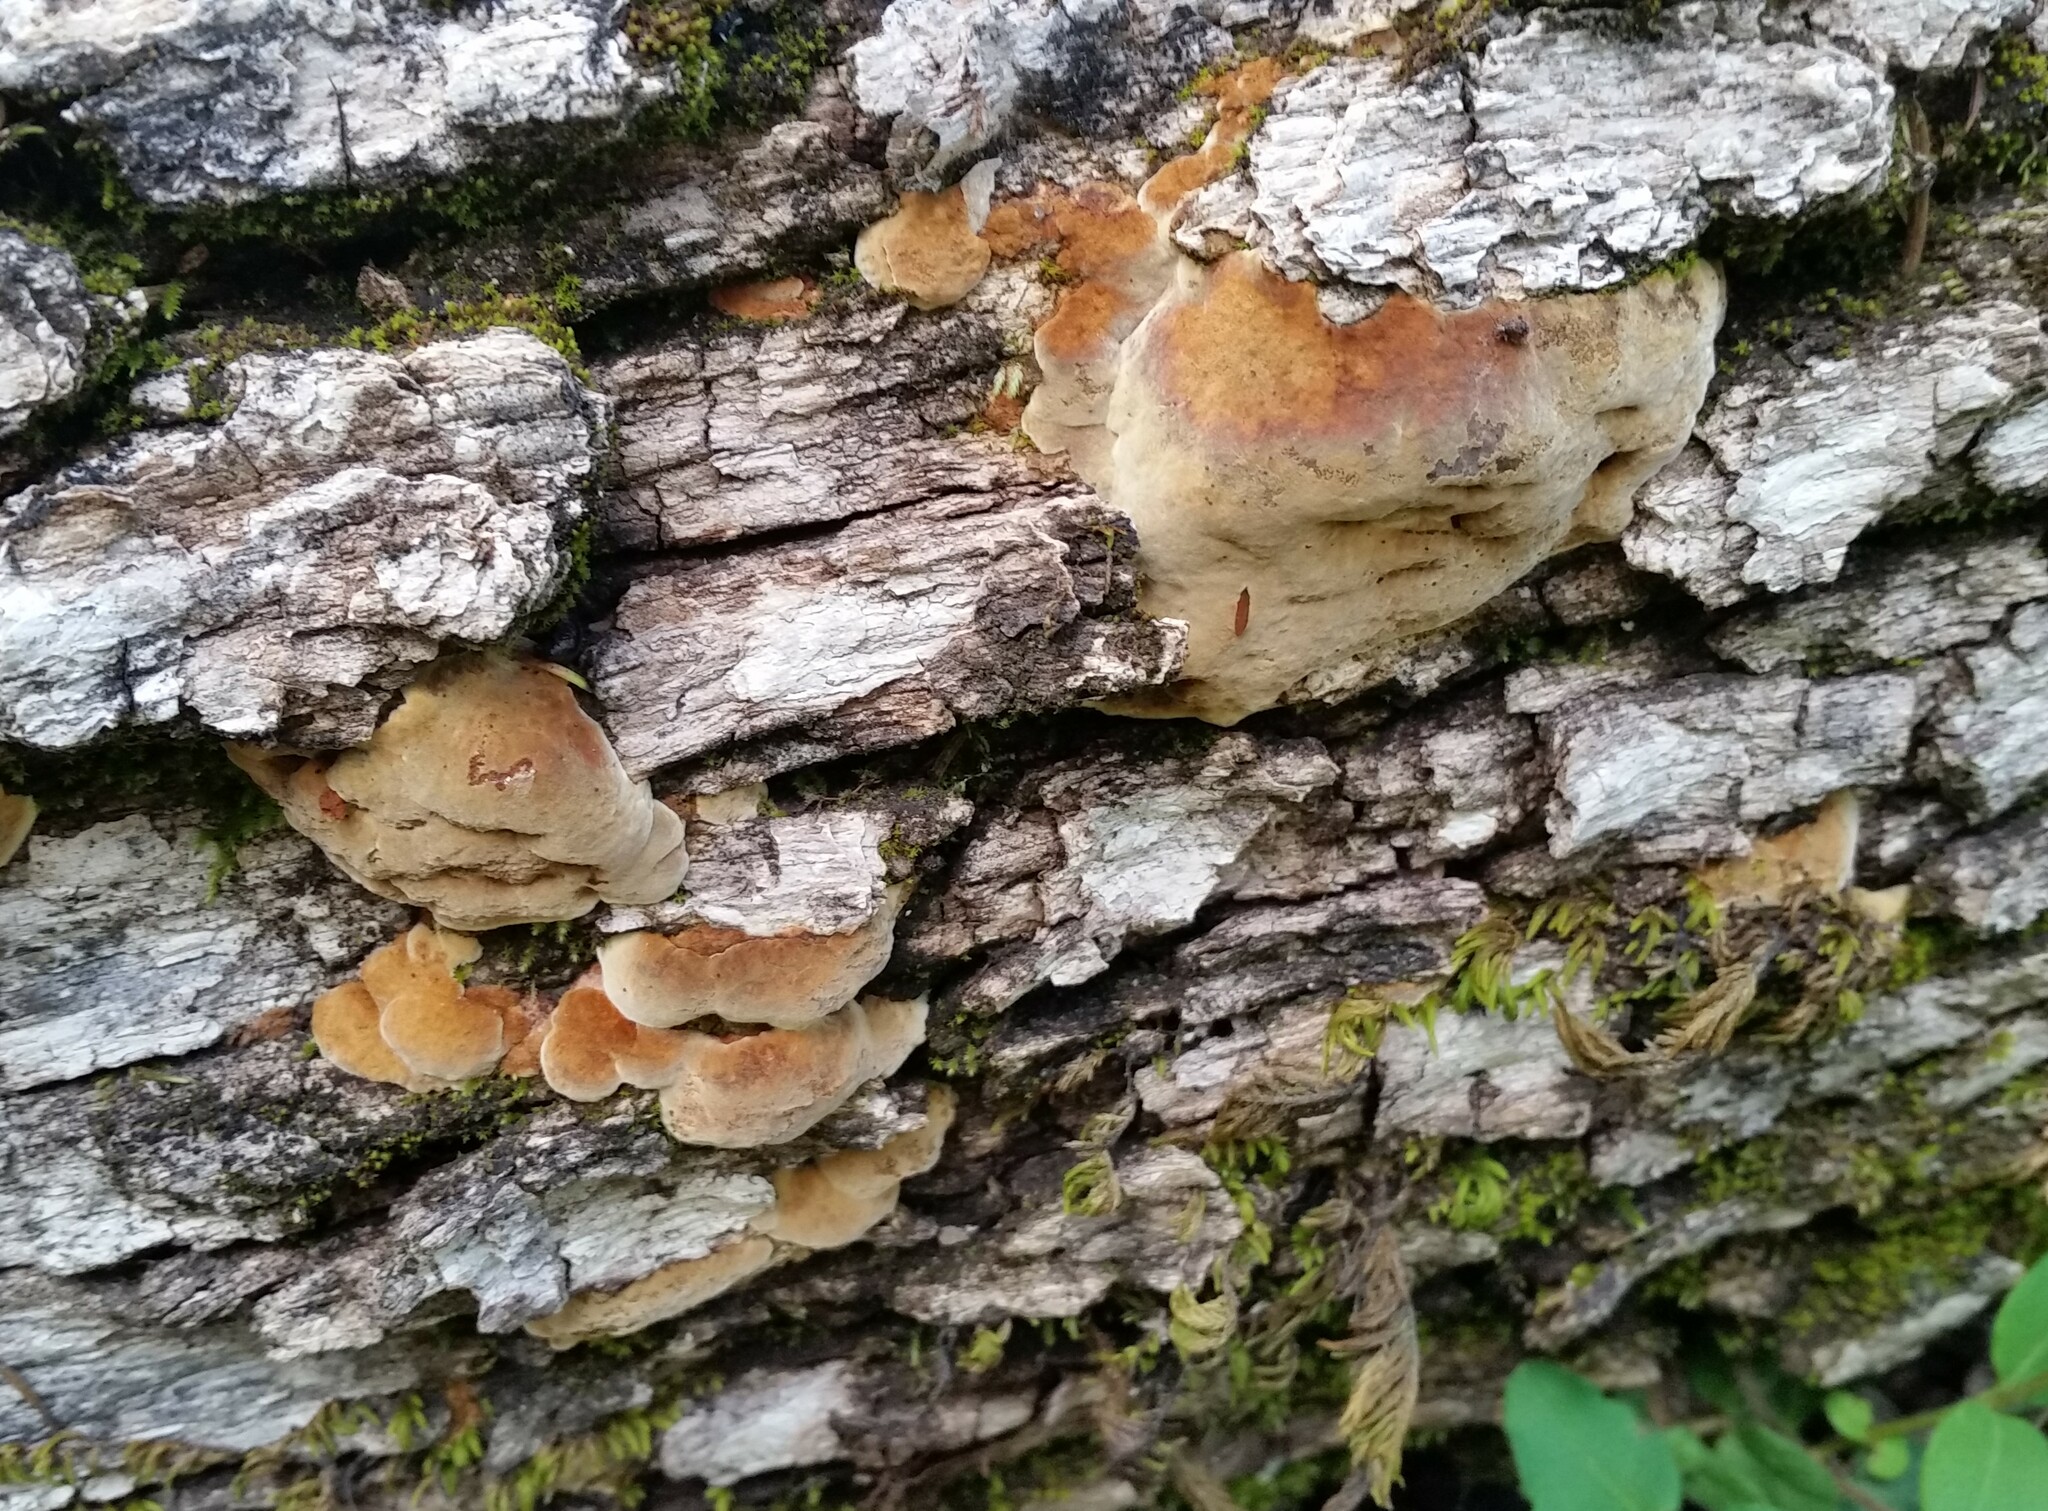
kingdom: Fungi
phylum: Basidiomycota
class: Agaricomycetes
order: Hymenochaetales
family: Hymenochaetaceae
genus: Phellinus
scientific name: Phellinus gilvus
